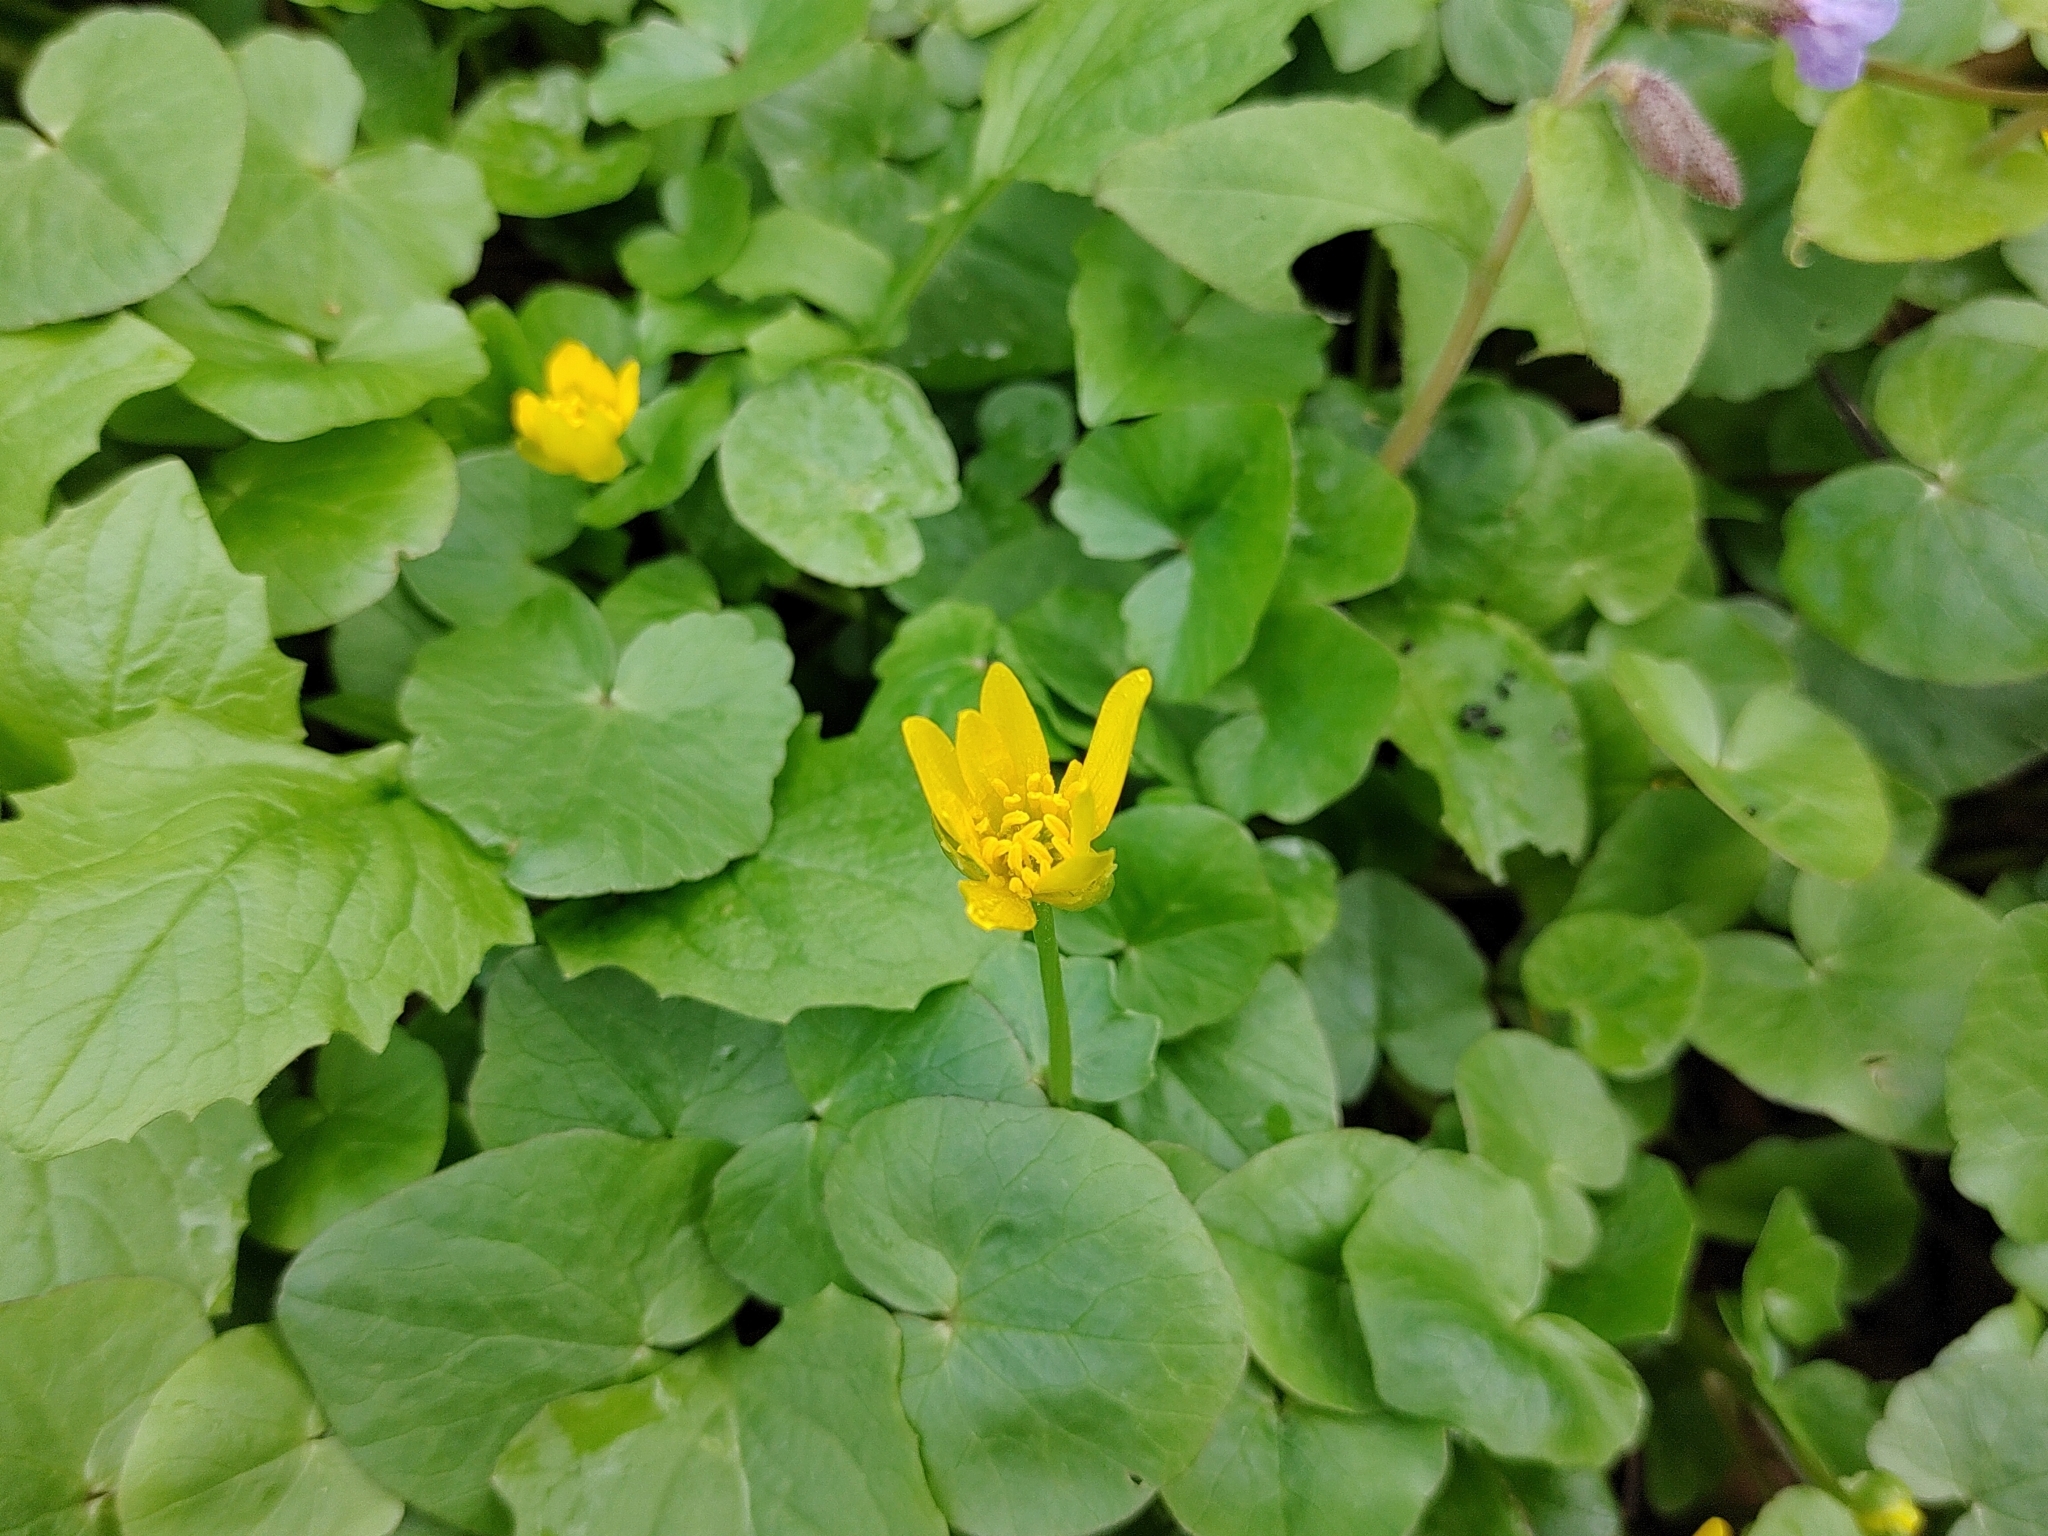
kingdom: Plantae
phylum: Tracheophyta
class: Magnoliopsida
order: Ranunculales
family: Ranunculaceae
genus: Ficaria
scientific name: Ficaria verna
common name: Lesser celandine
